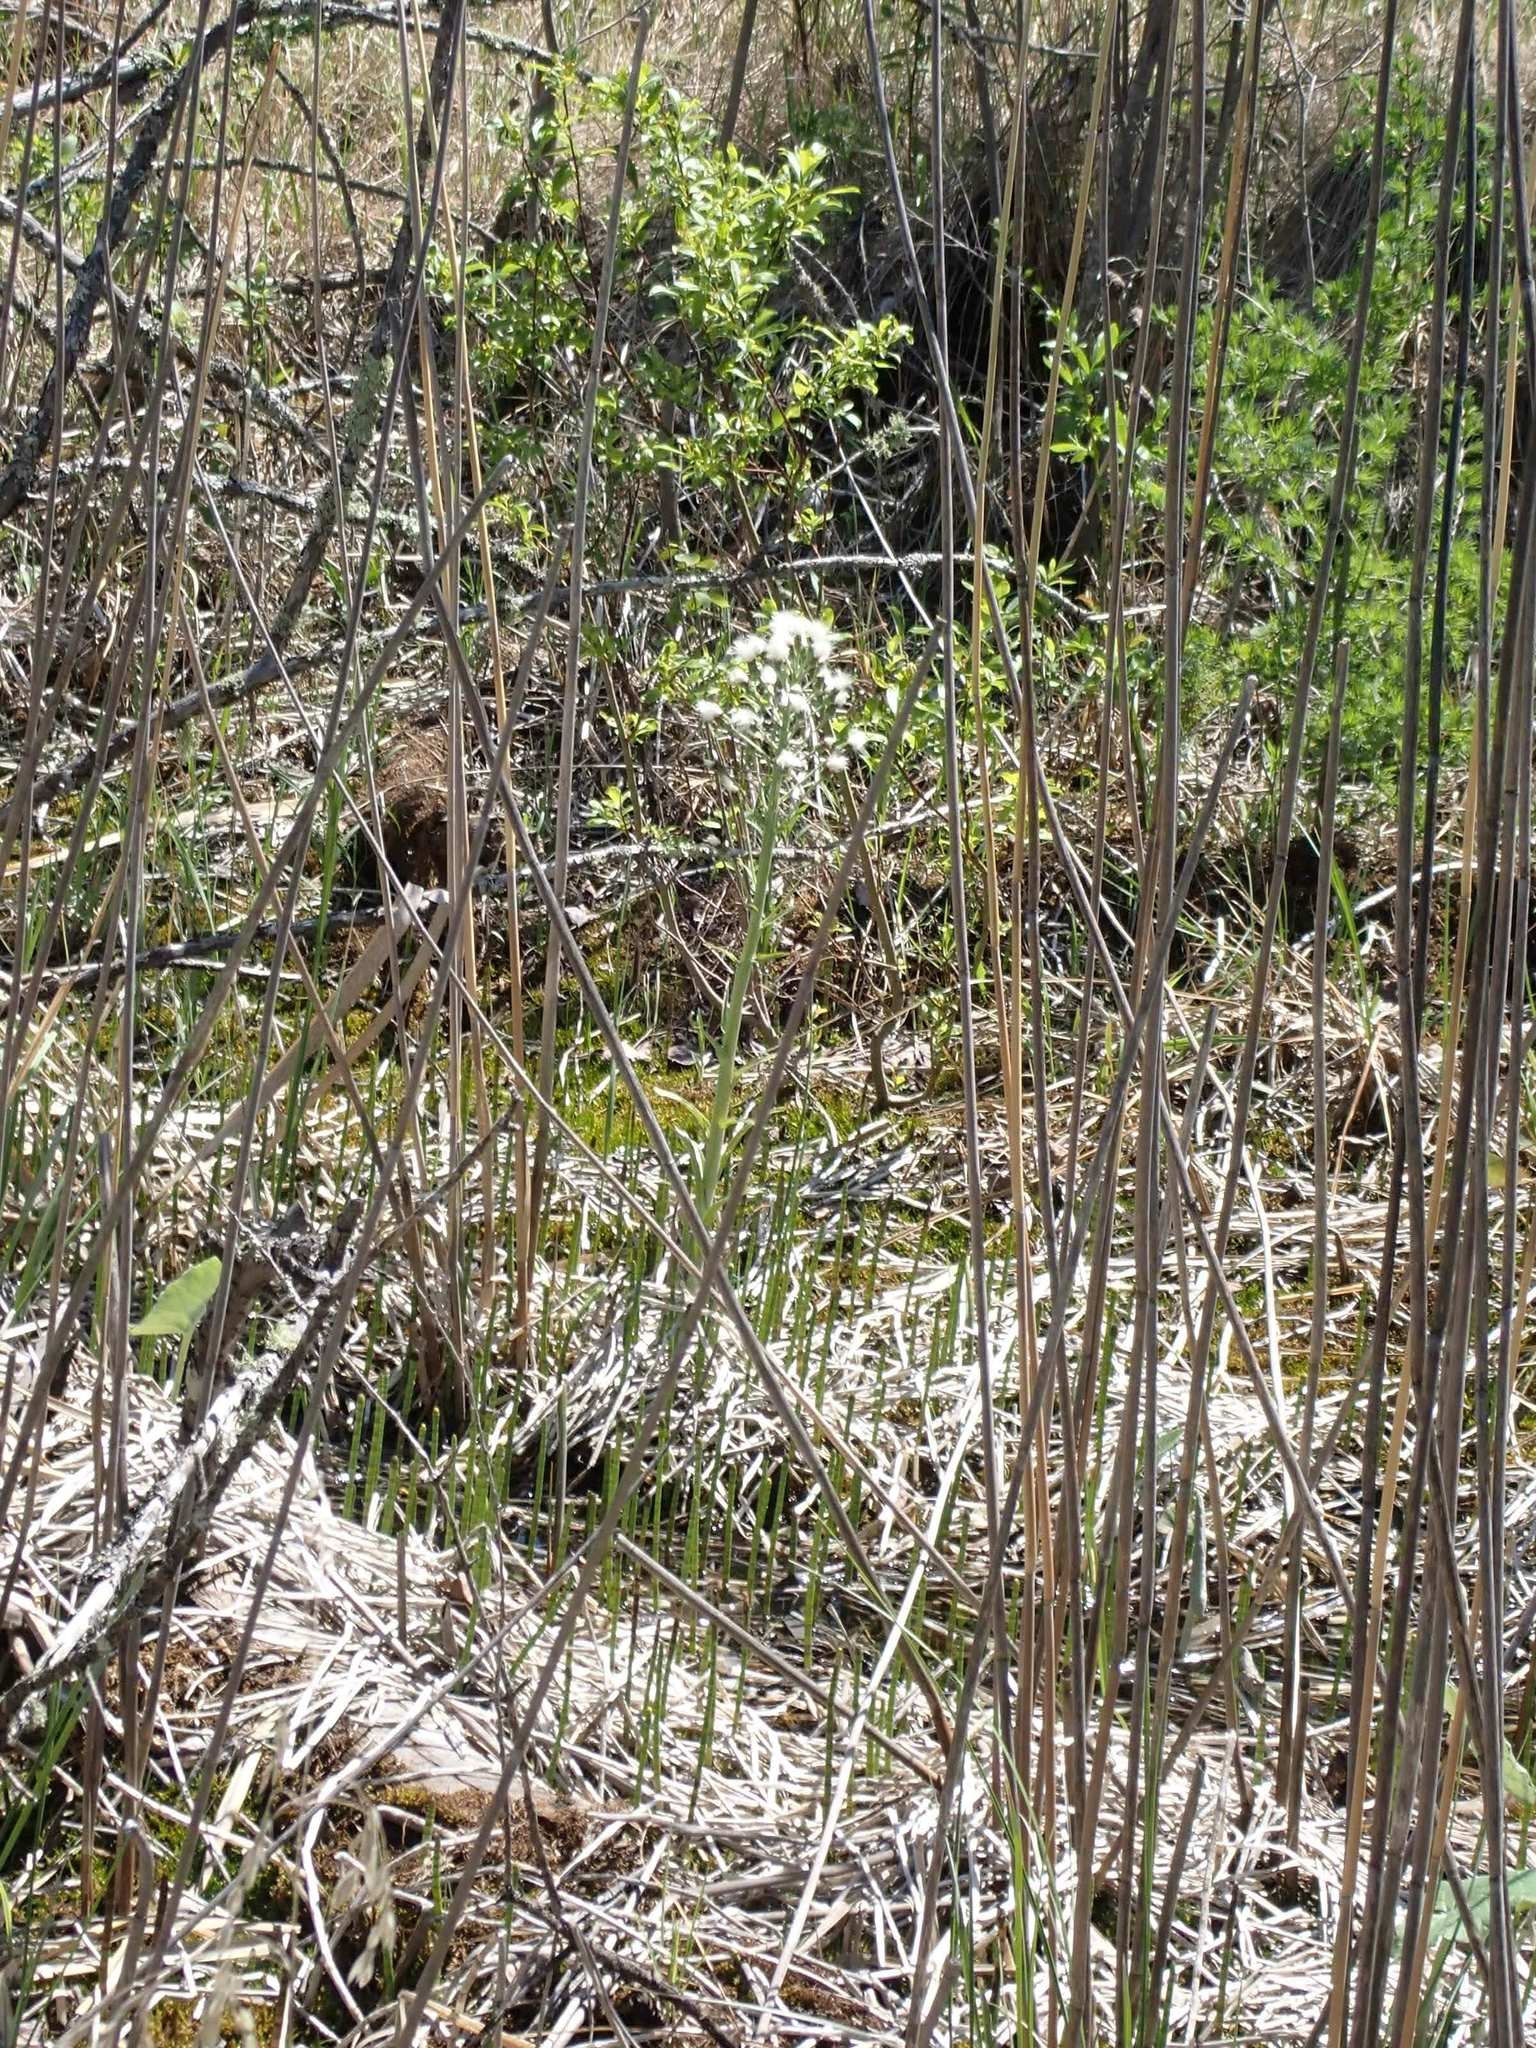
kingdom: Plantae
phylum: Tracheophyta
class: Magnoliopsida
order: Asterales
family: Asteraceae
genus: Petasites
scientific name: Petasites frigidus
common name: Arctic butterbur
